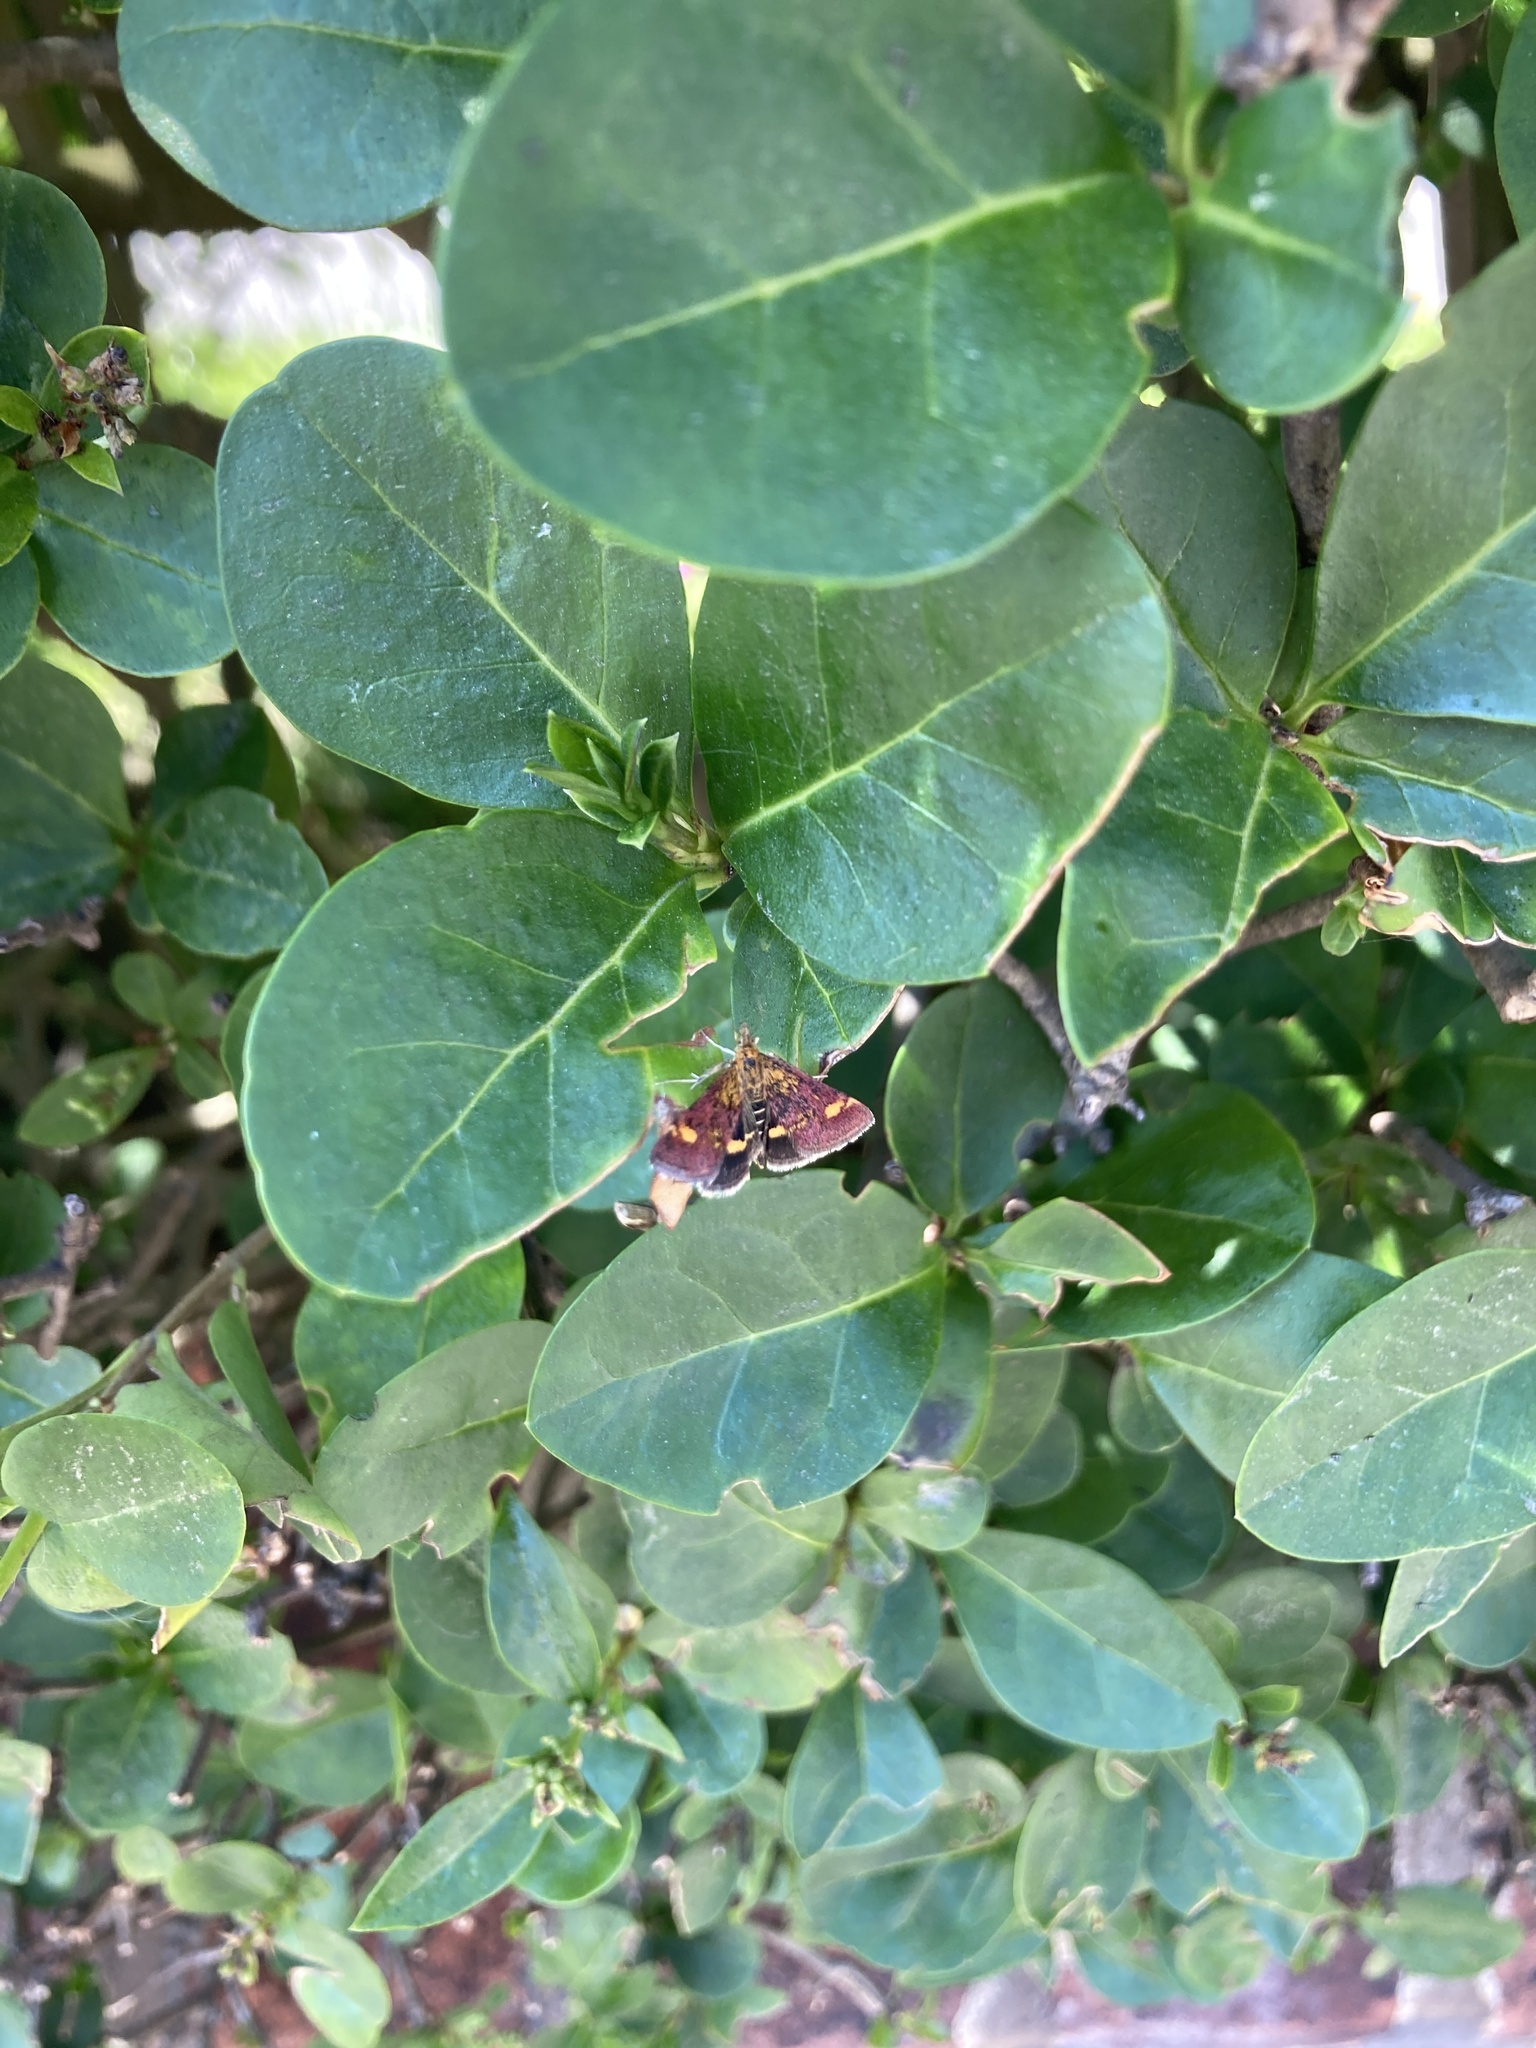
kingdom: Animalia
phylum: Arthropoda
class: Insecta
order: Lepidoptera
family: Crambidae
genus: Pyrausta
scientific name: Pyrausta aurata
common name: Small purple & gold
